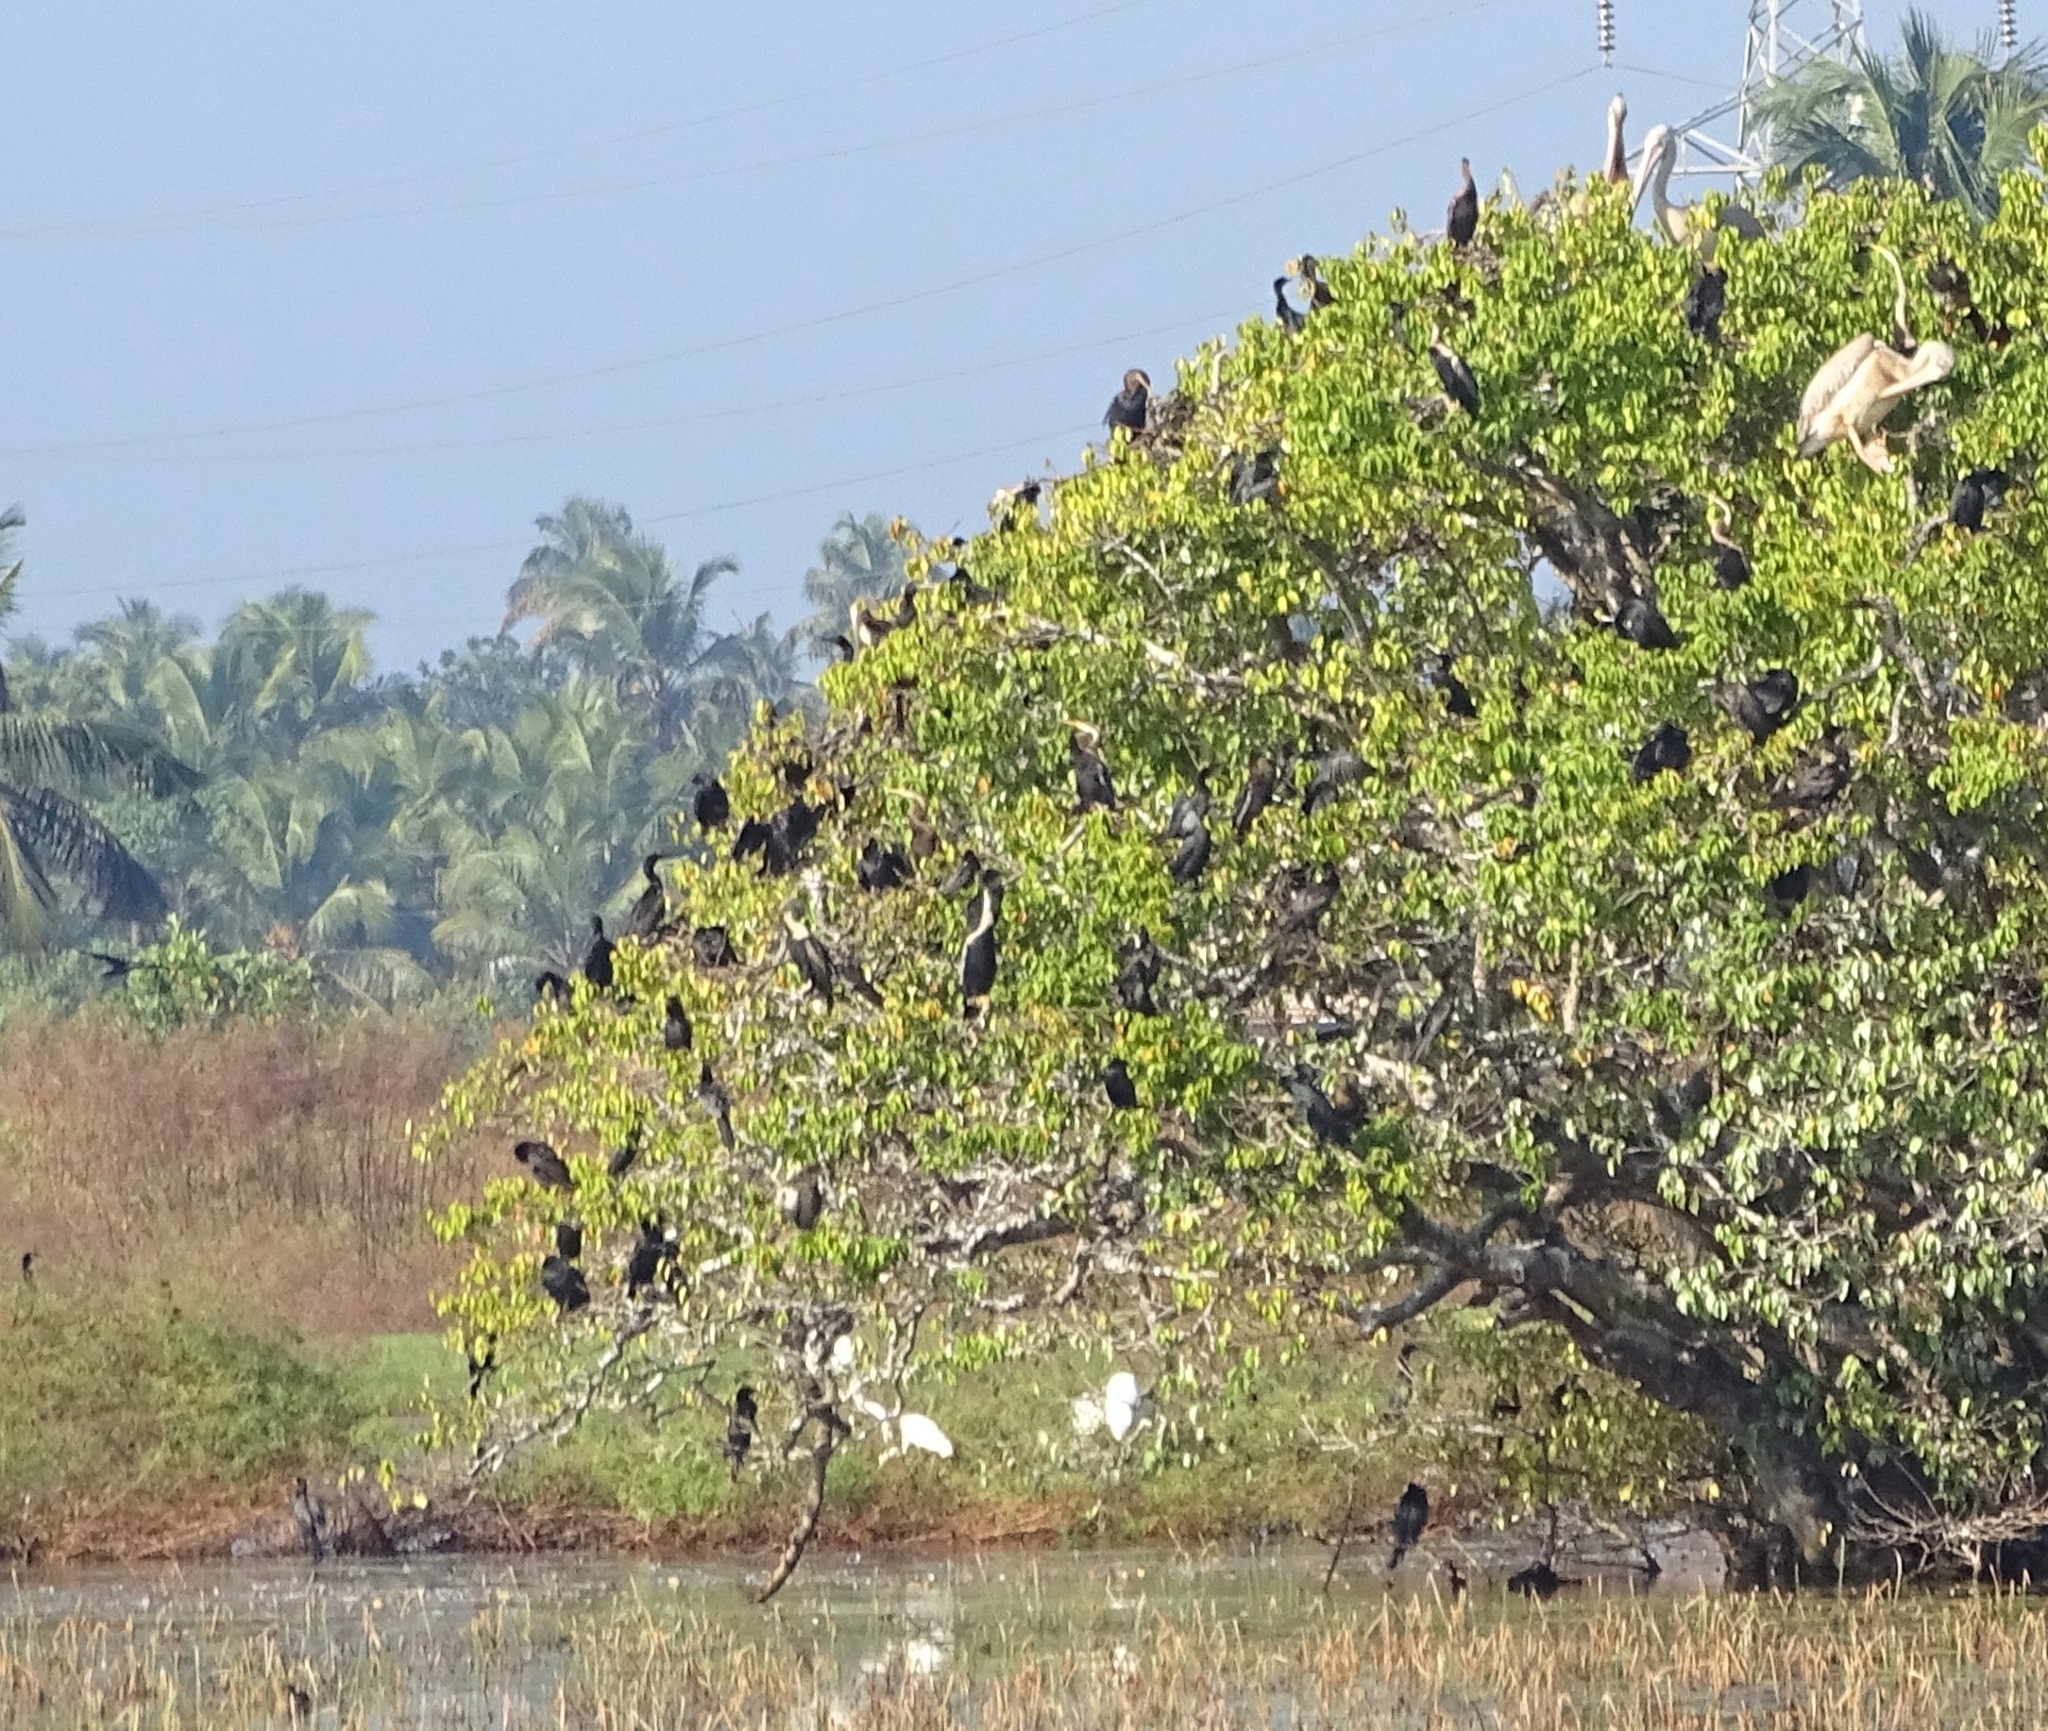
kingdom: Animalia
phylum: Chordata
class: Aves
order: Suliformes
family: Anhingidae
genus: Anhinga
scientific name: Anhinga melanogaster
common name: Oriental darter
